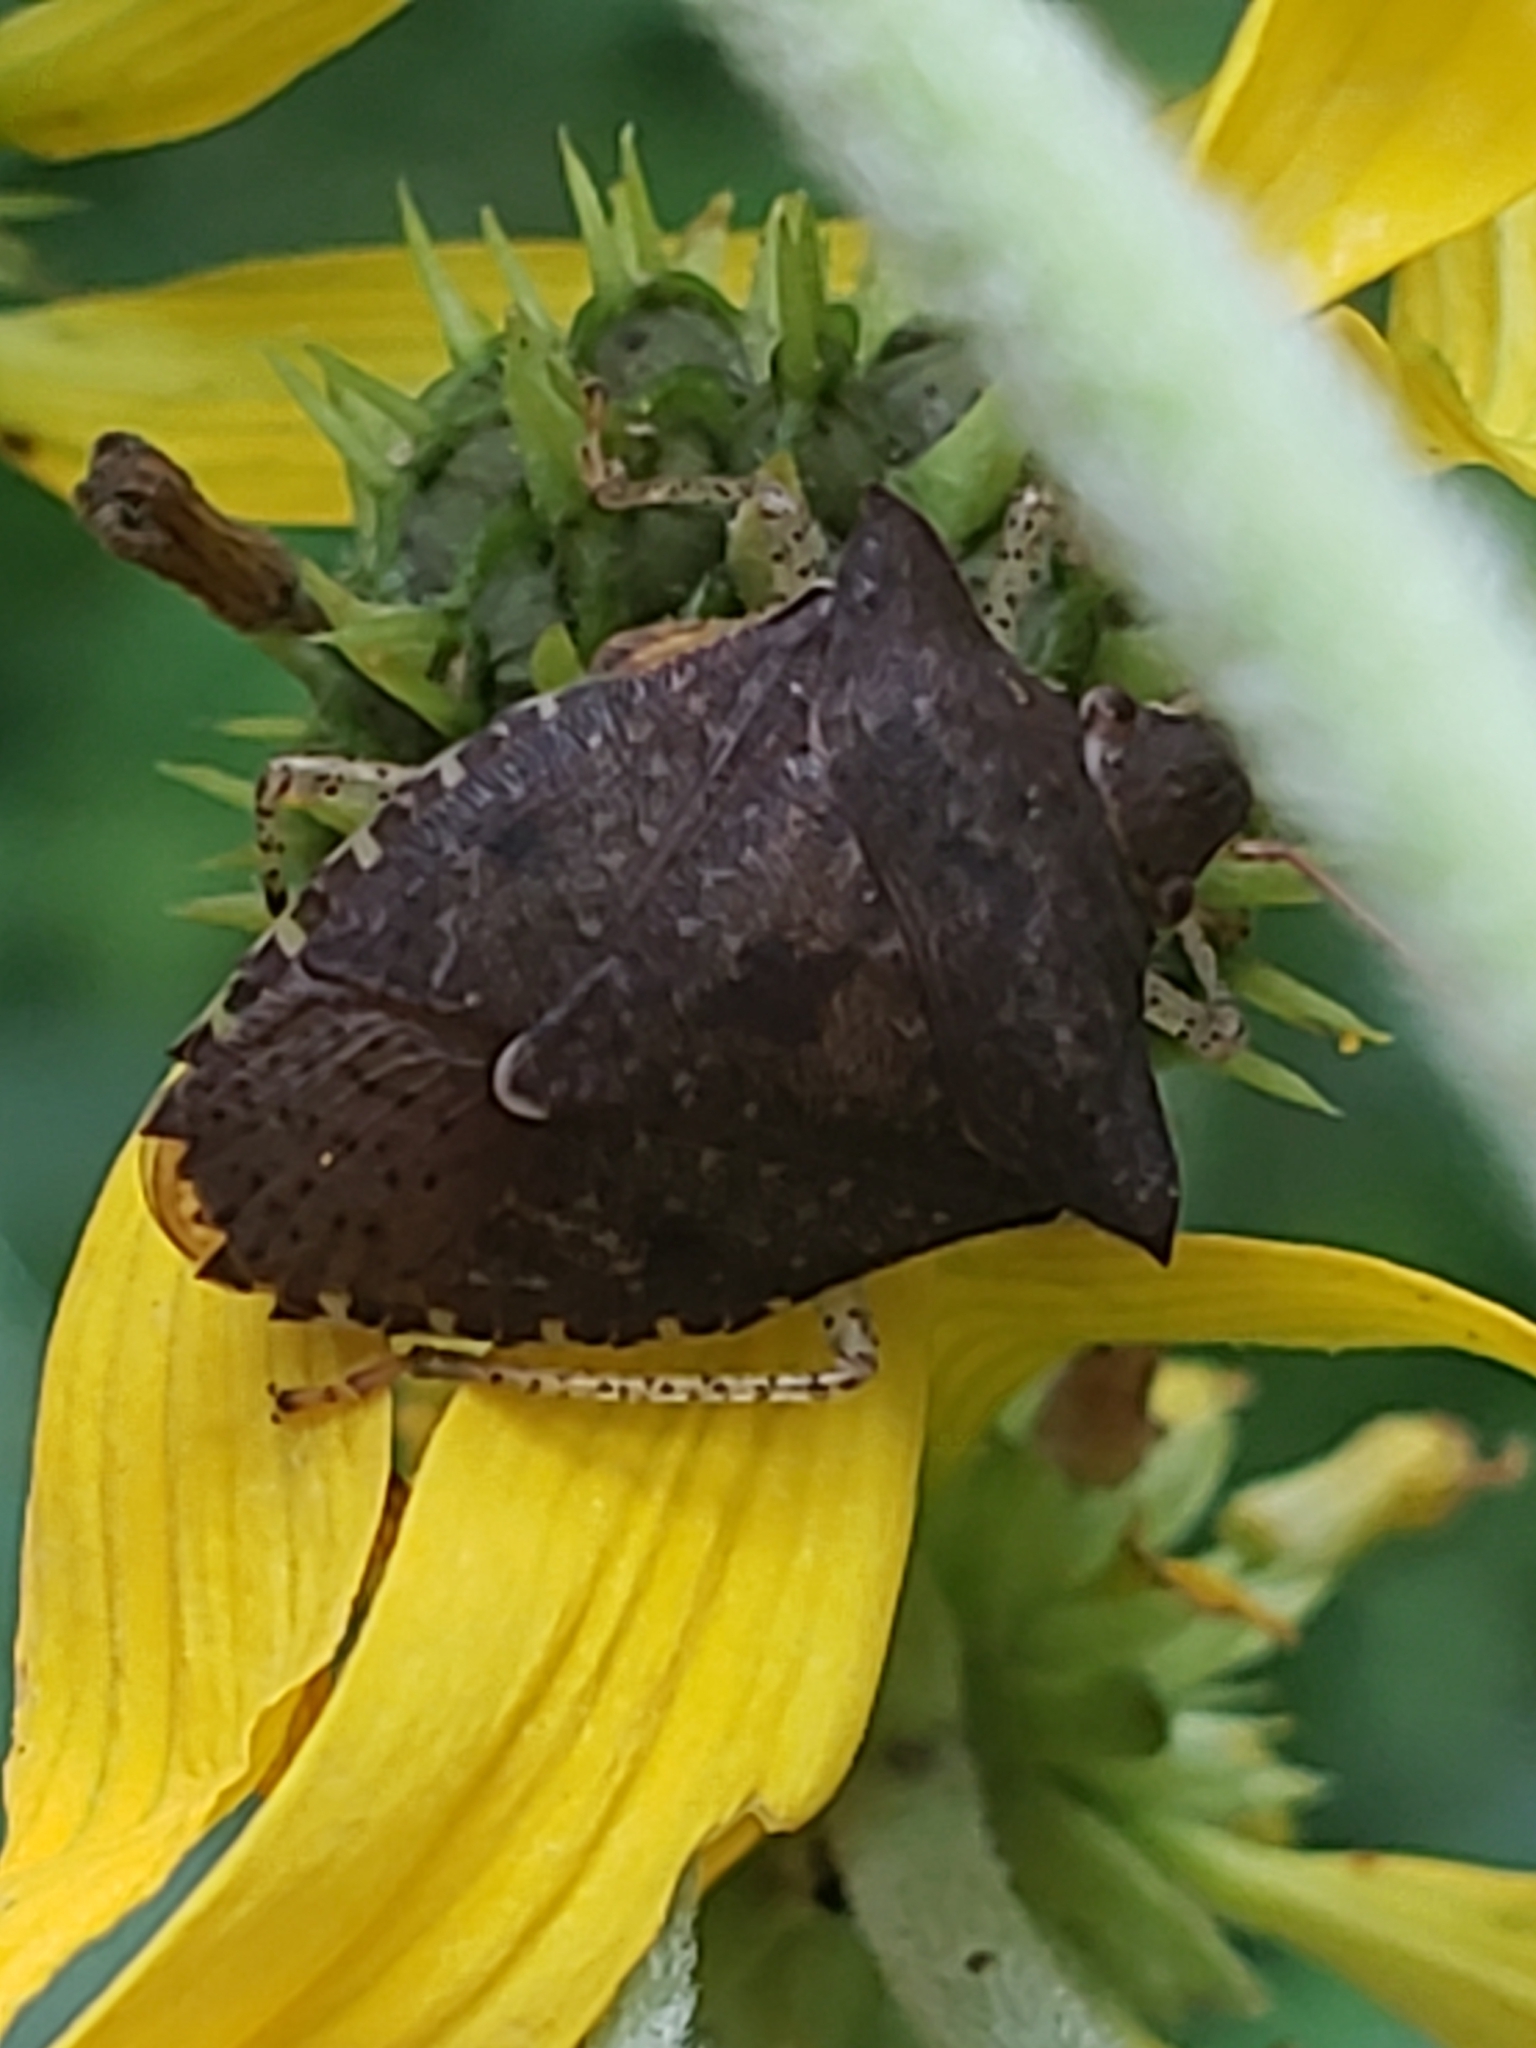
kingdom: Animalia
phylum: Arthropoda
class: Insecta
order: Hemiptera
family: Pentatomidae
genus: Euschistus
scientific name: Euschistus tristigmus
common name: Dusky stink bug
